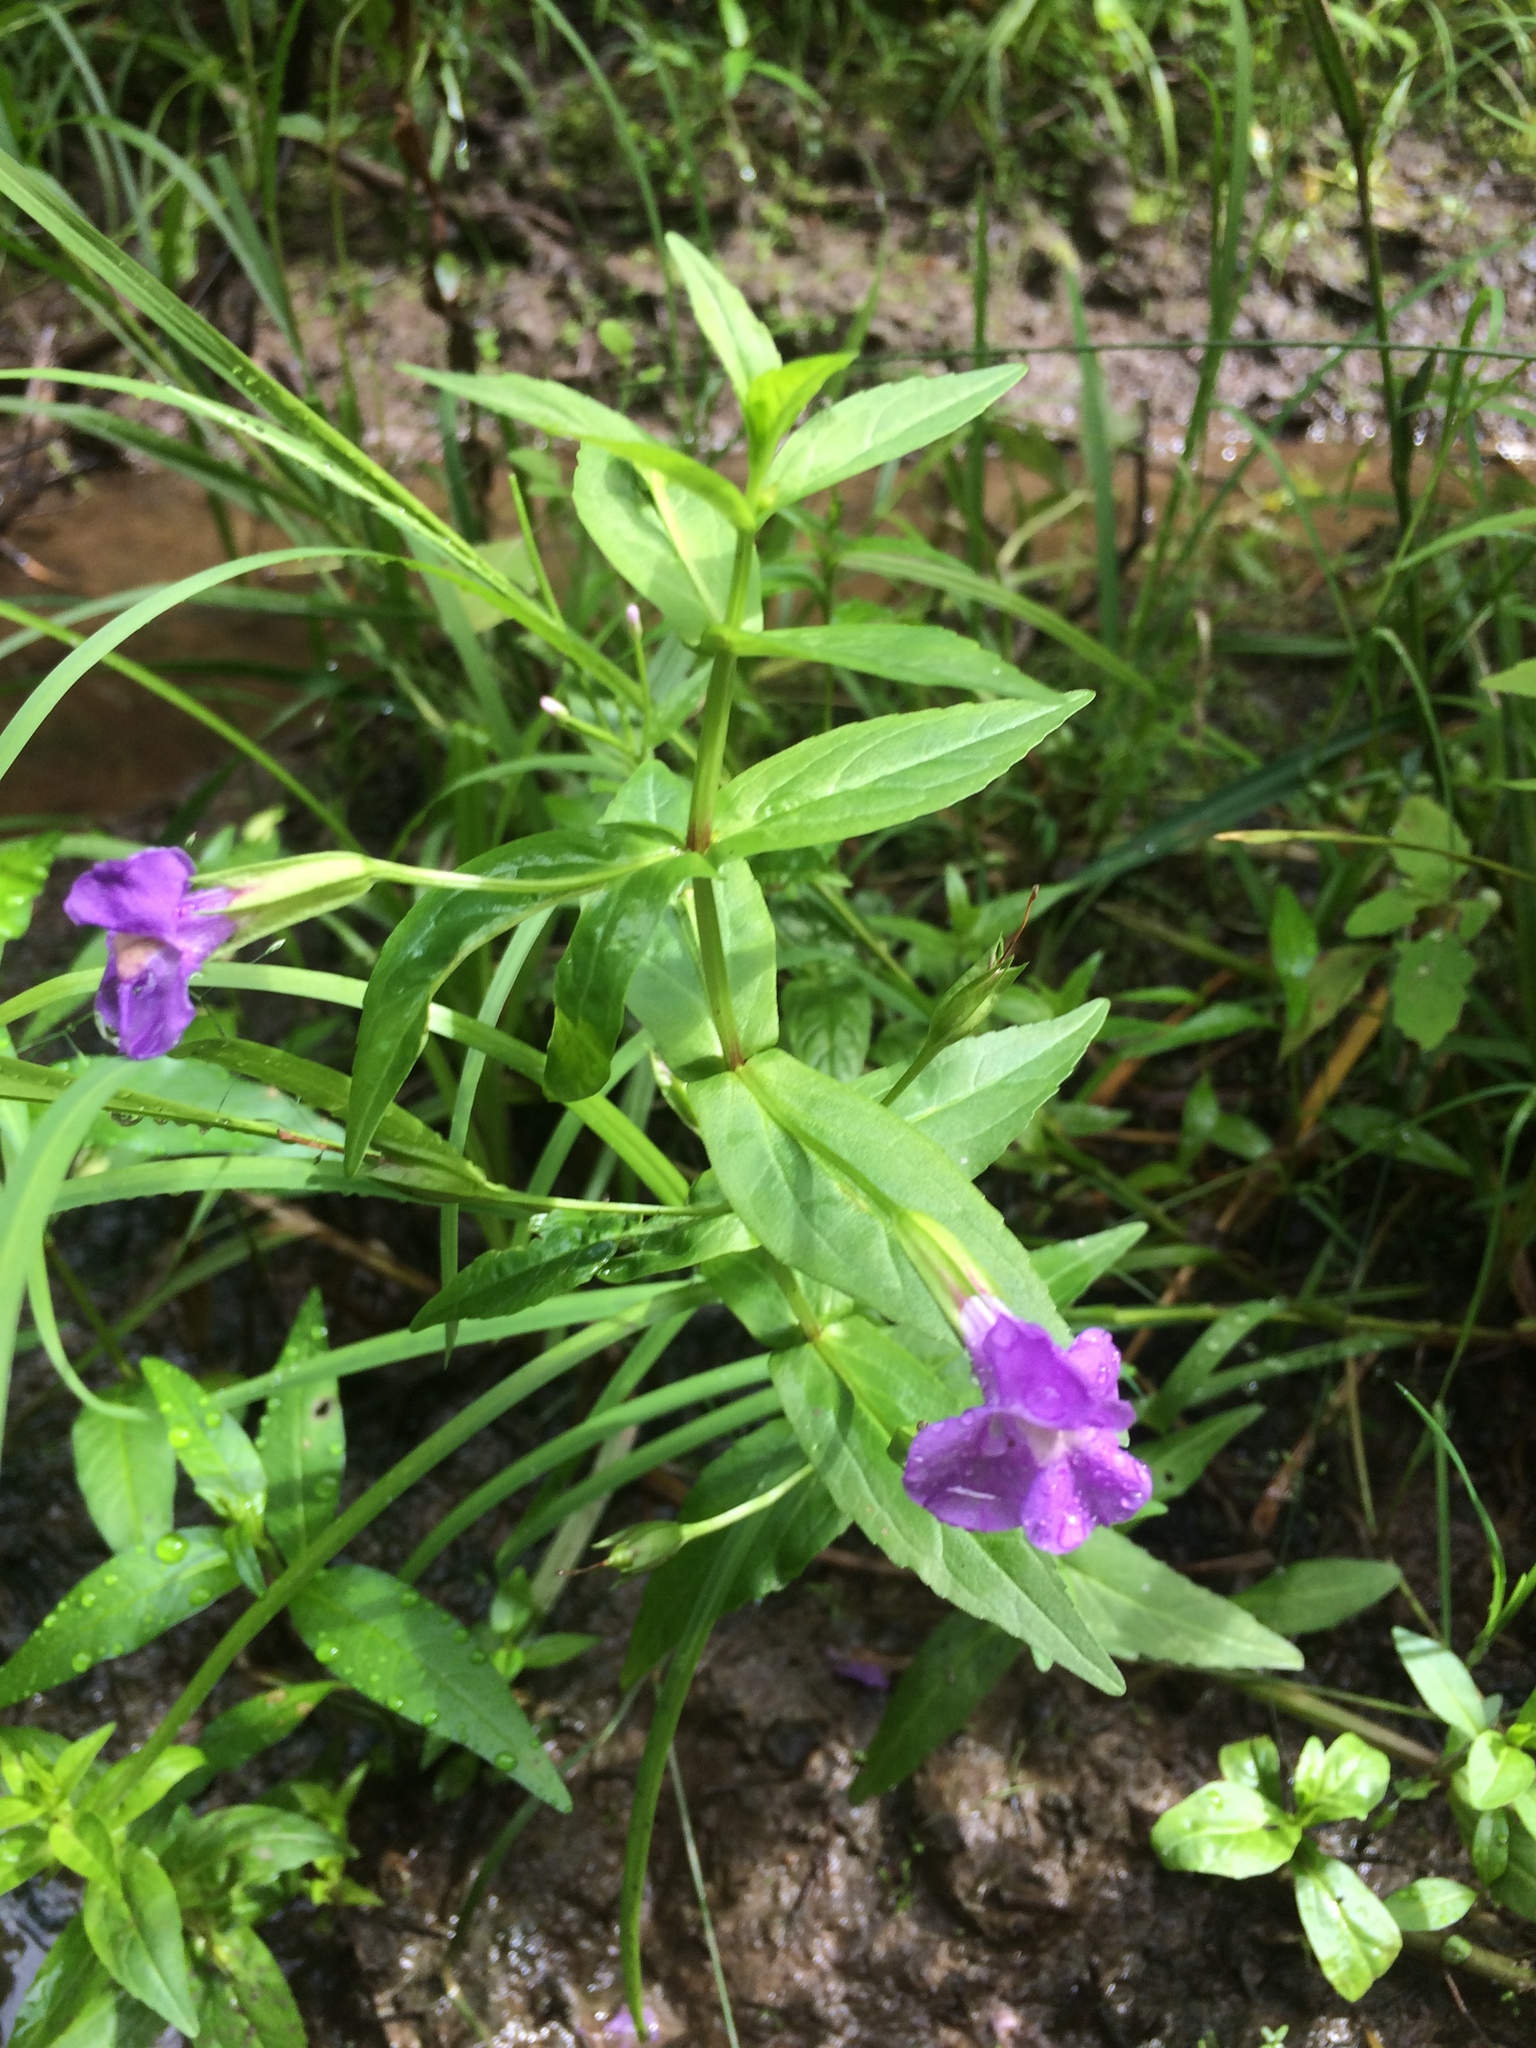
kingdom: Plantae
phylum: Tracheophyta
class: Magnoliopsida
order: Lamiales
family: Phrymaceae
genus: Mimulus
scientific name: Mimulus ringens
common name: Allegheny monkeyflower
